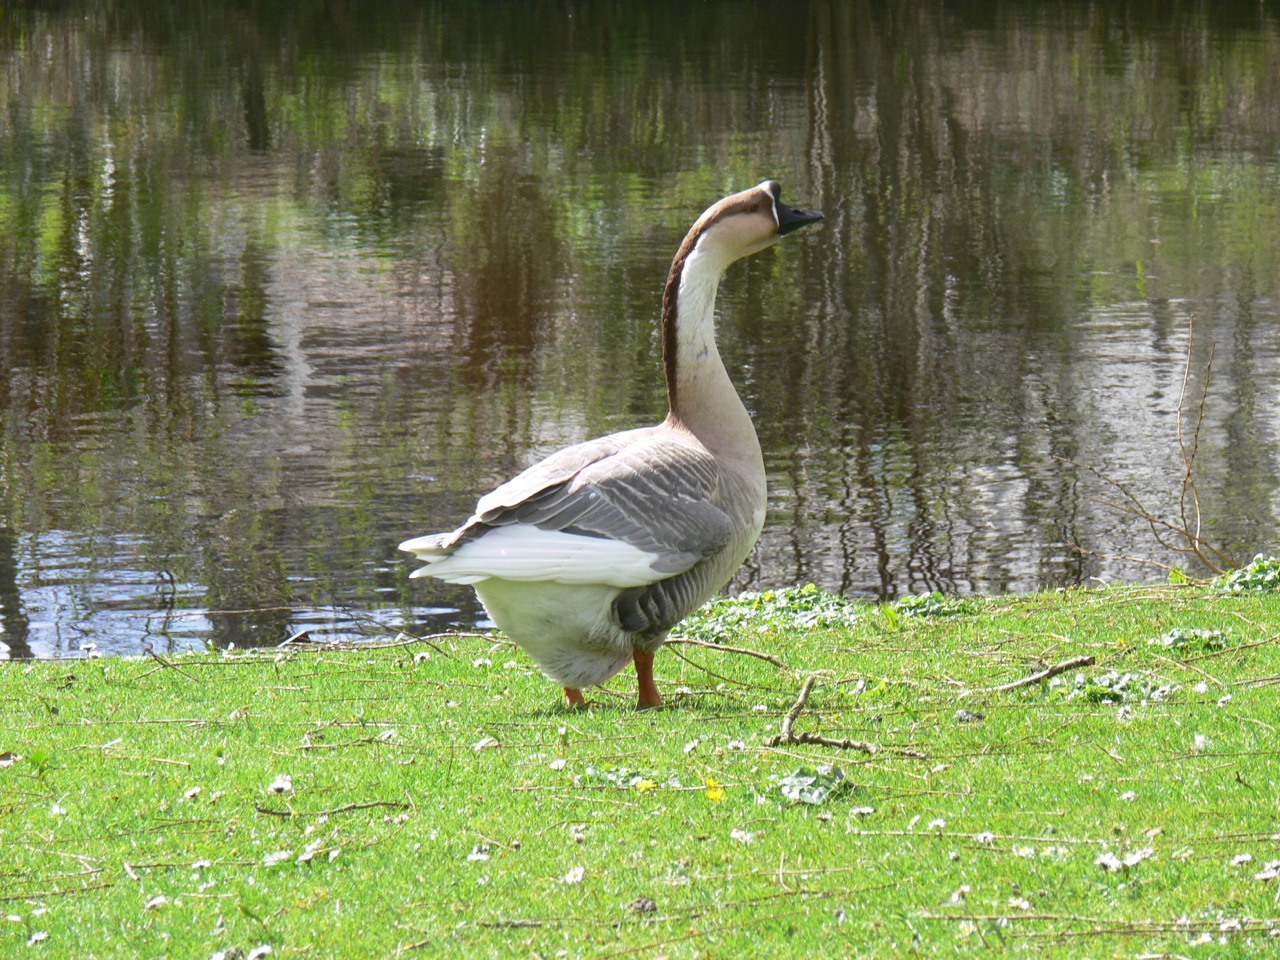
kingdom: Animalia
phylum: Chordata
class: Aves
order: Anseriformes
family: Anatidae
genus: Anser
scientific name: Anser cygnoides
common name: Swan goose
